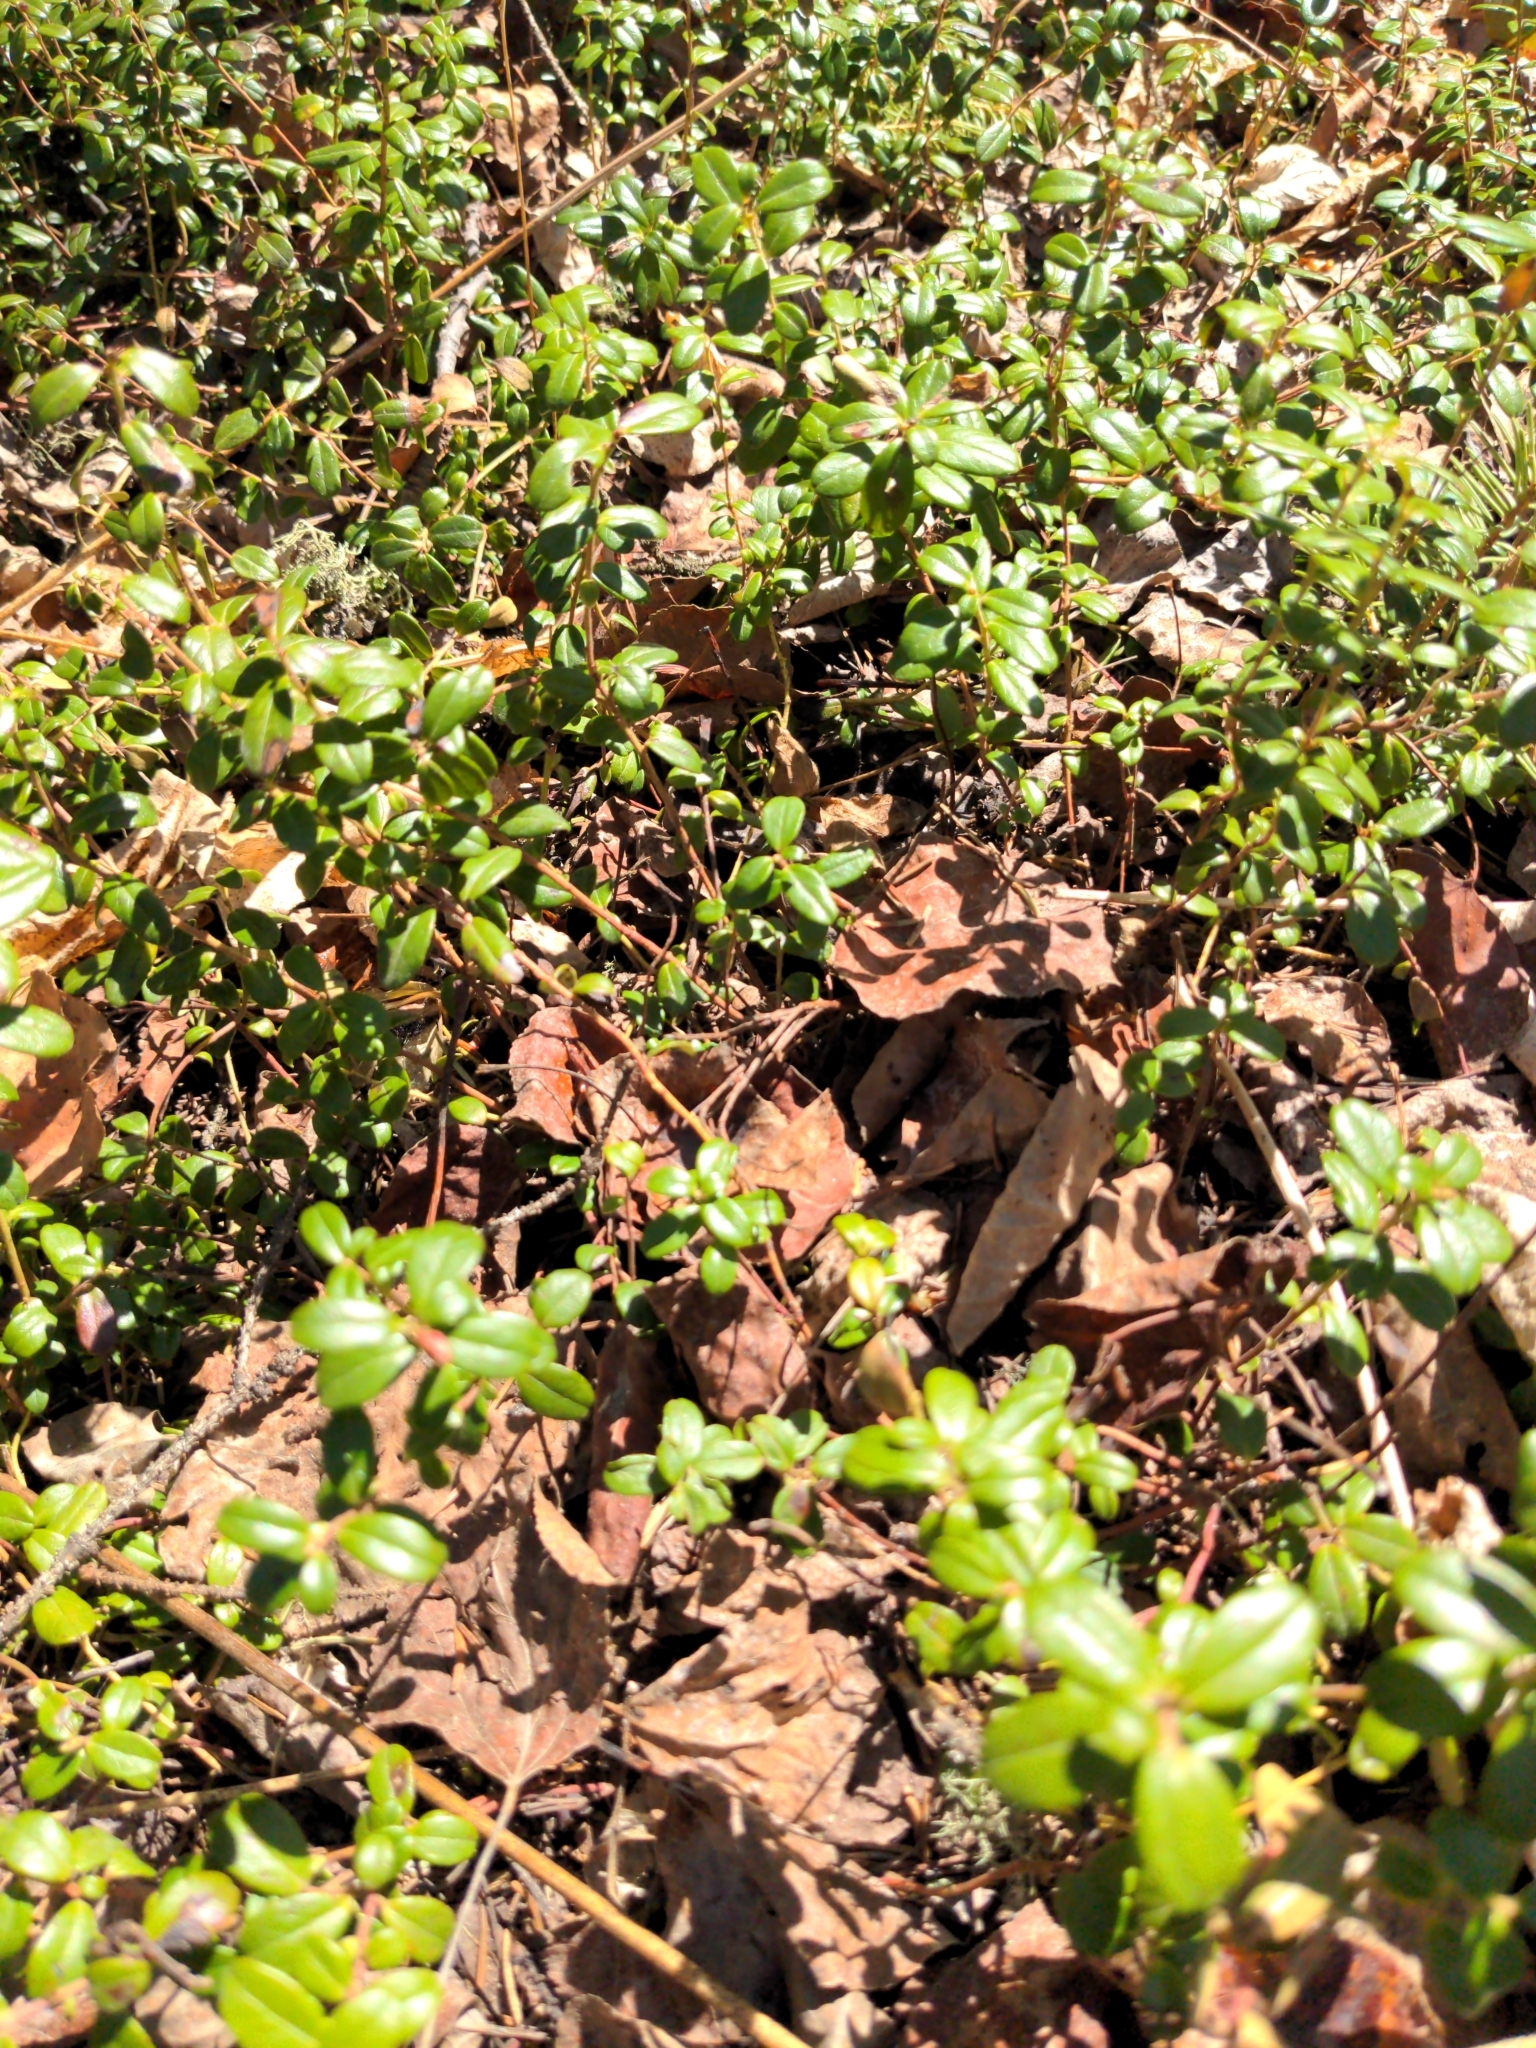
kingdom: Plantae
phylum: Tracheophyta
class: Magnoliopsida
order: Ericales
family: Ericaceae
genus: Vaccinium
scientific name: Vaccinium vitis-idaea
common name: Cowberry
